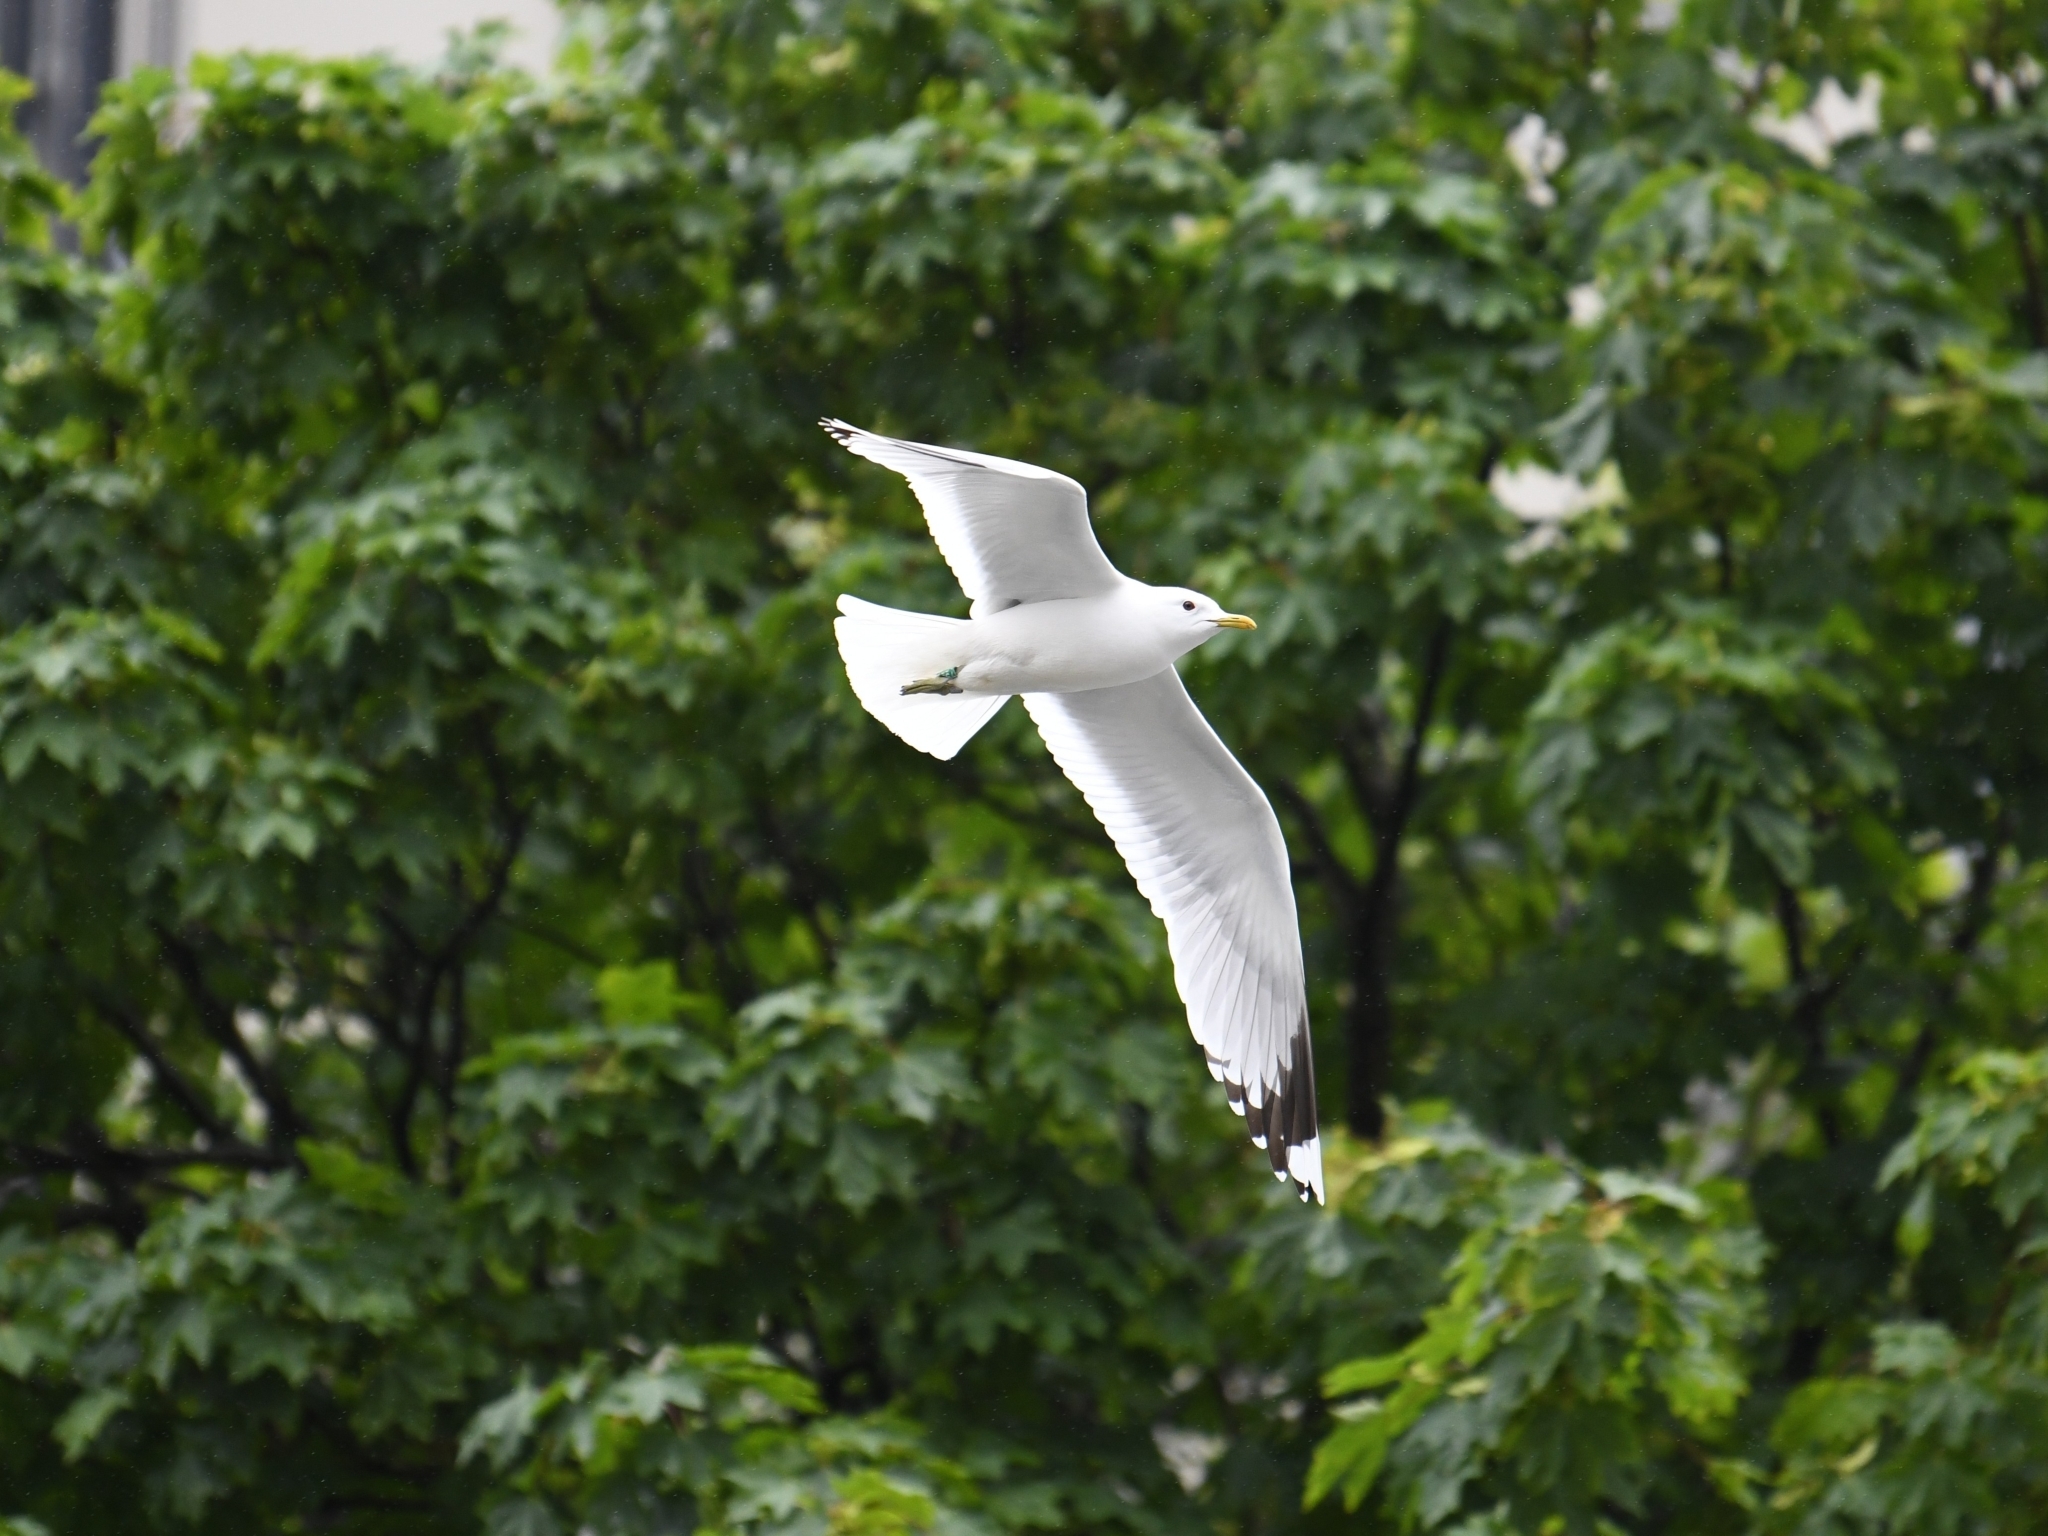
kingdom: Animalia
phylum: Chordata
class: Aves
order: Charadriiformes
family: Laridae
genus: Larus
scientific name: Larus canus
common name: Mew gull
